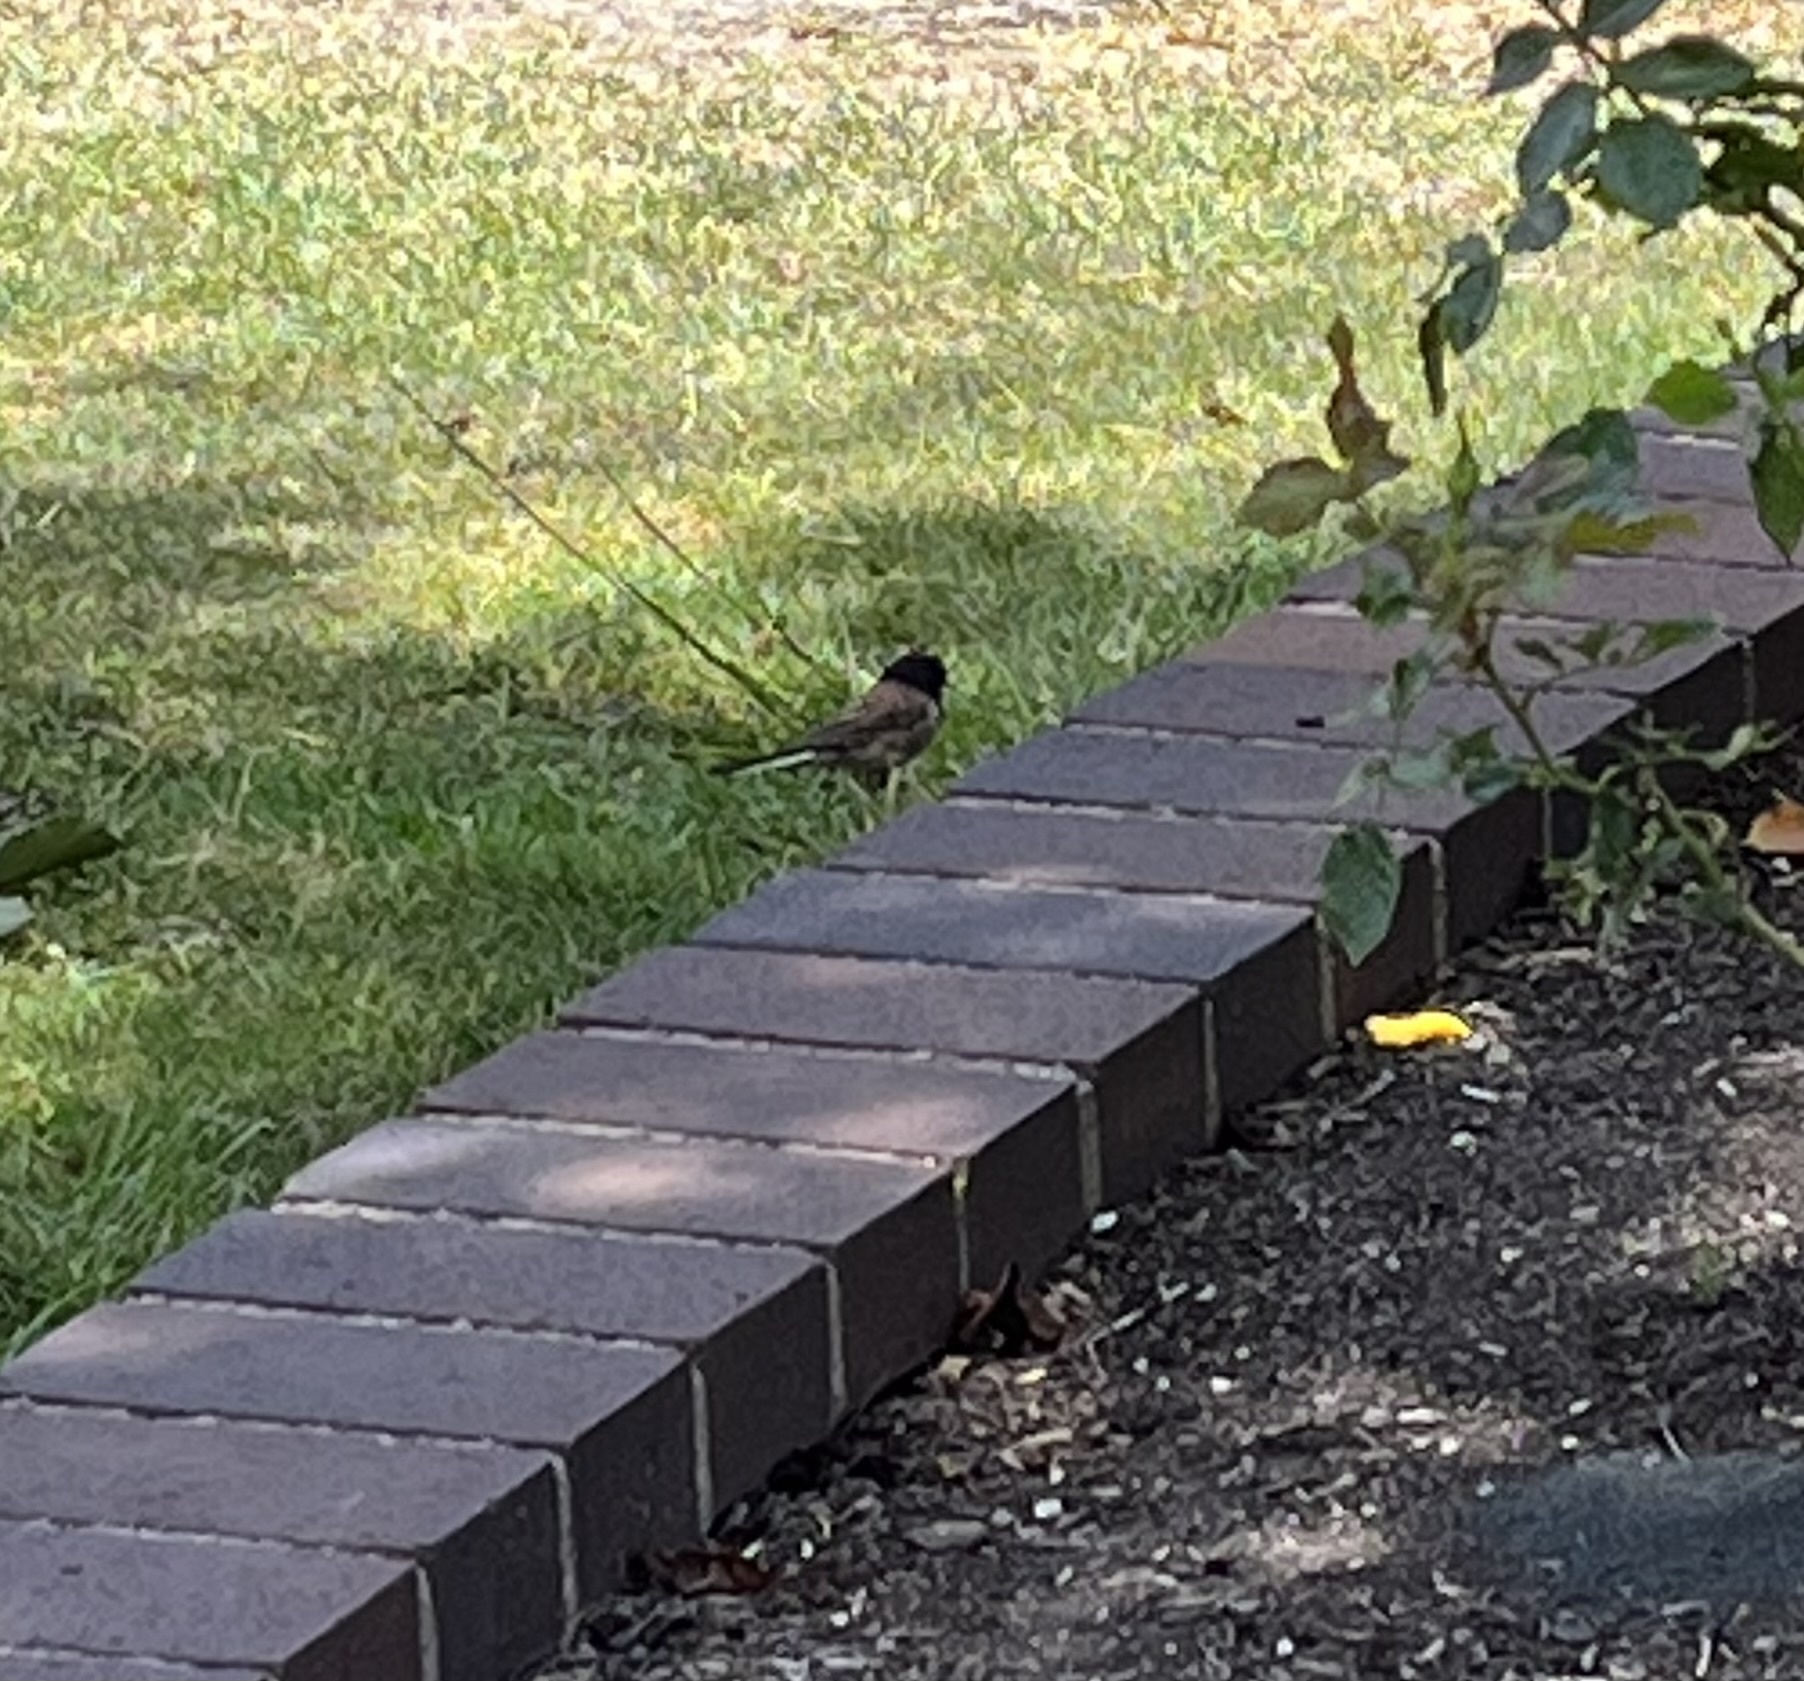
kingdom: Animalia
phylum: Chordata
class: Aves
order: Passeriformes
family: Passerellidae
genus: Junco
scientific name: Junco hyemalis
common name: Dark-eyed junco
